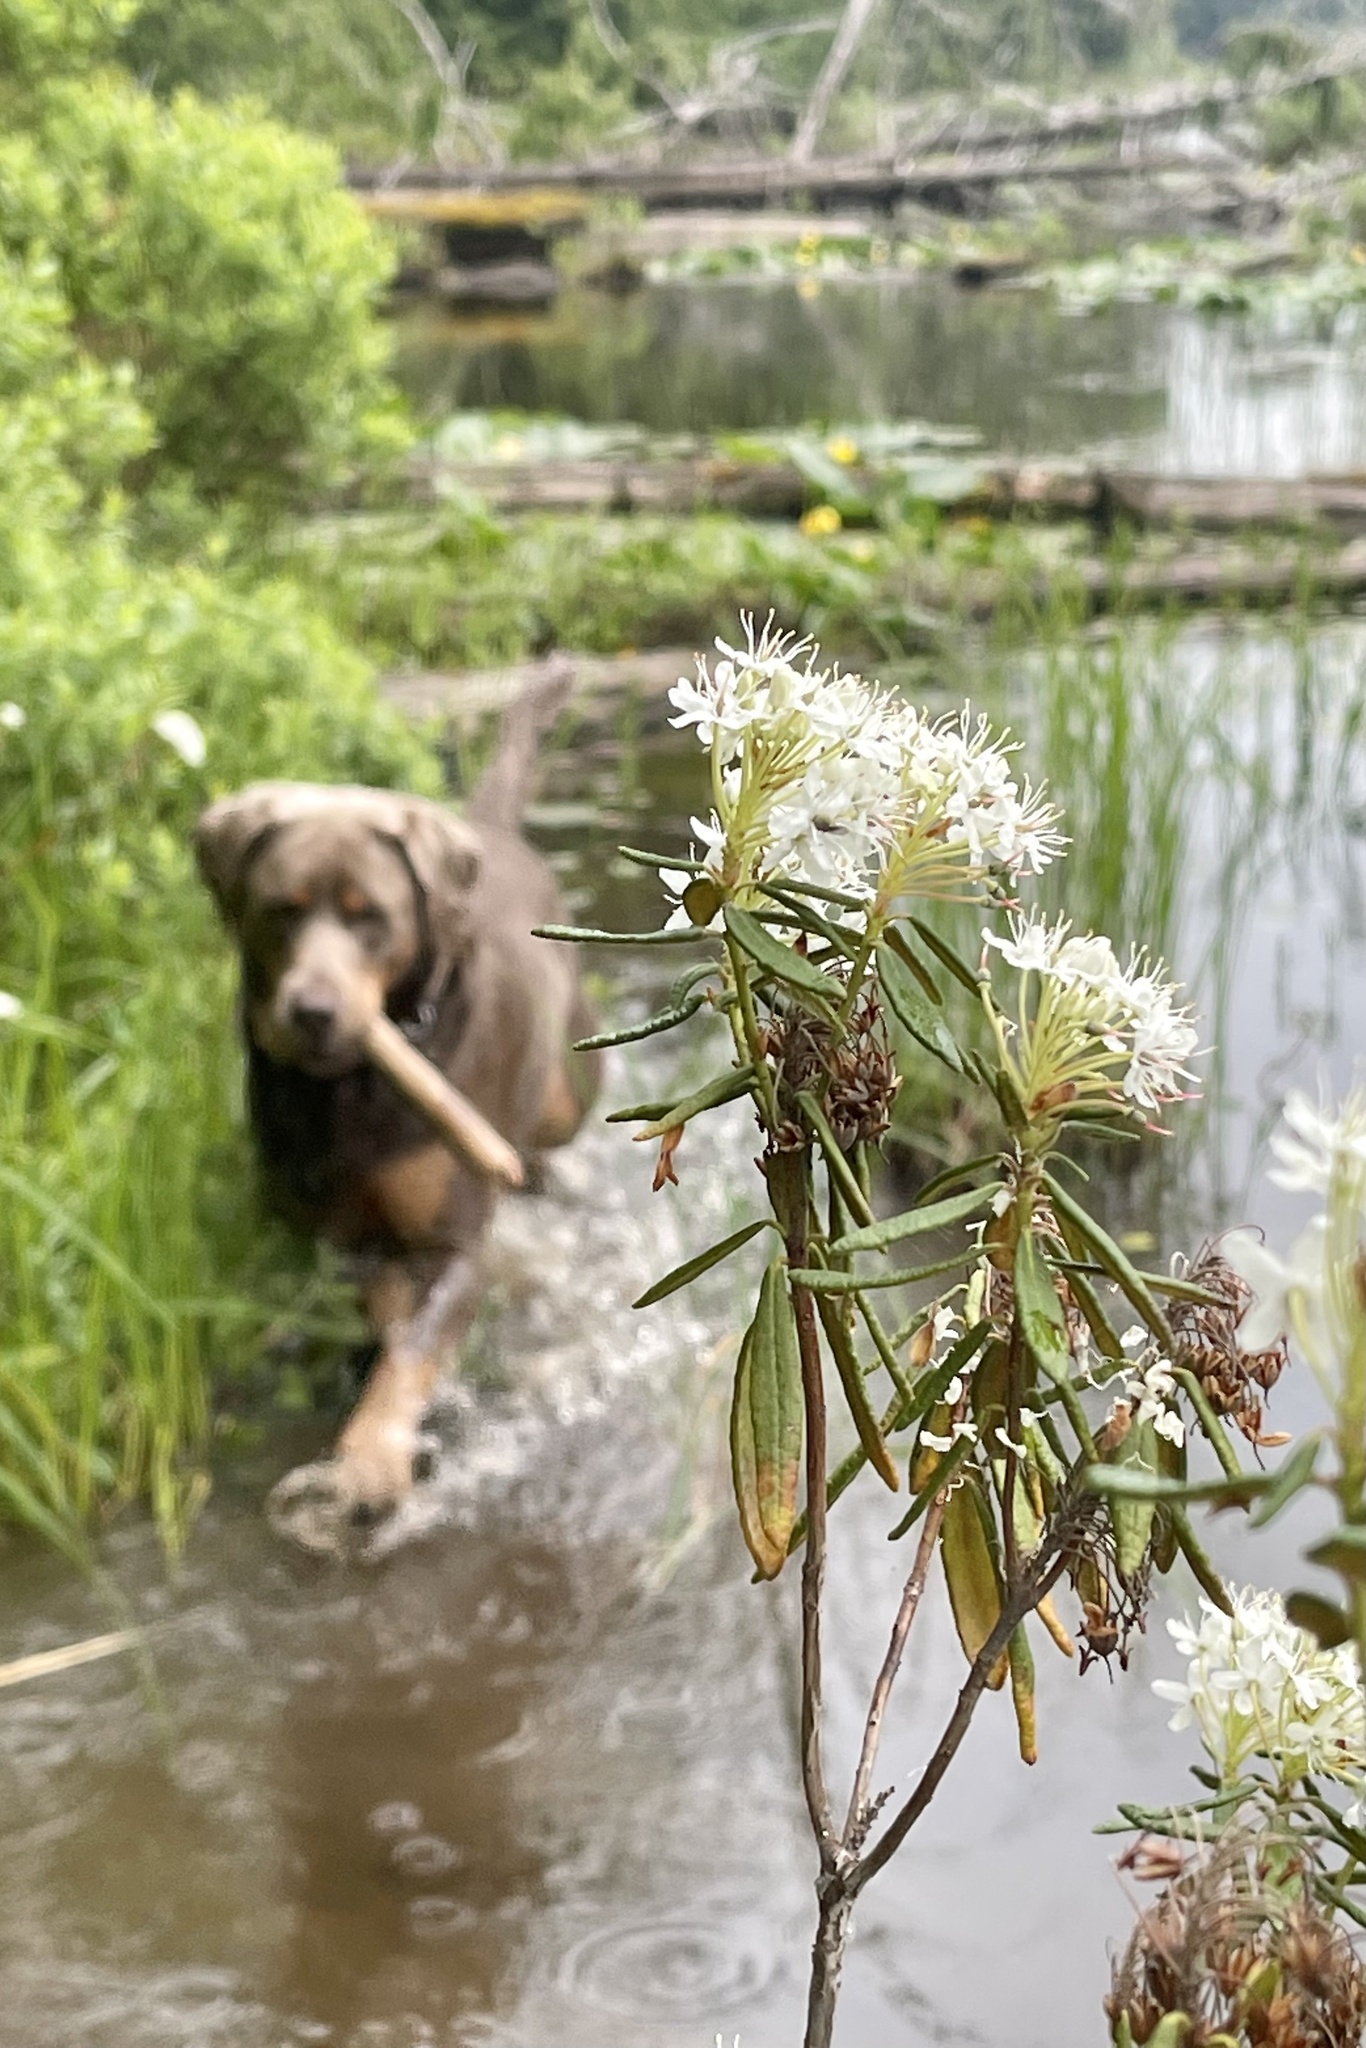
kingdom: Plantae
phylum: Tracheophyta
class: Magnoliopsida
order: Ericales
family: Ericaceae
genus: Rhododendron
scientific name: Rhododendron groenlandicum
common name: Bog labrador tea
